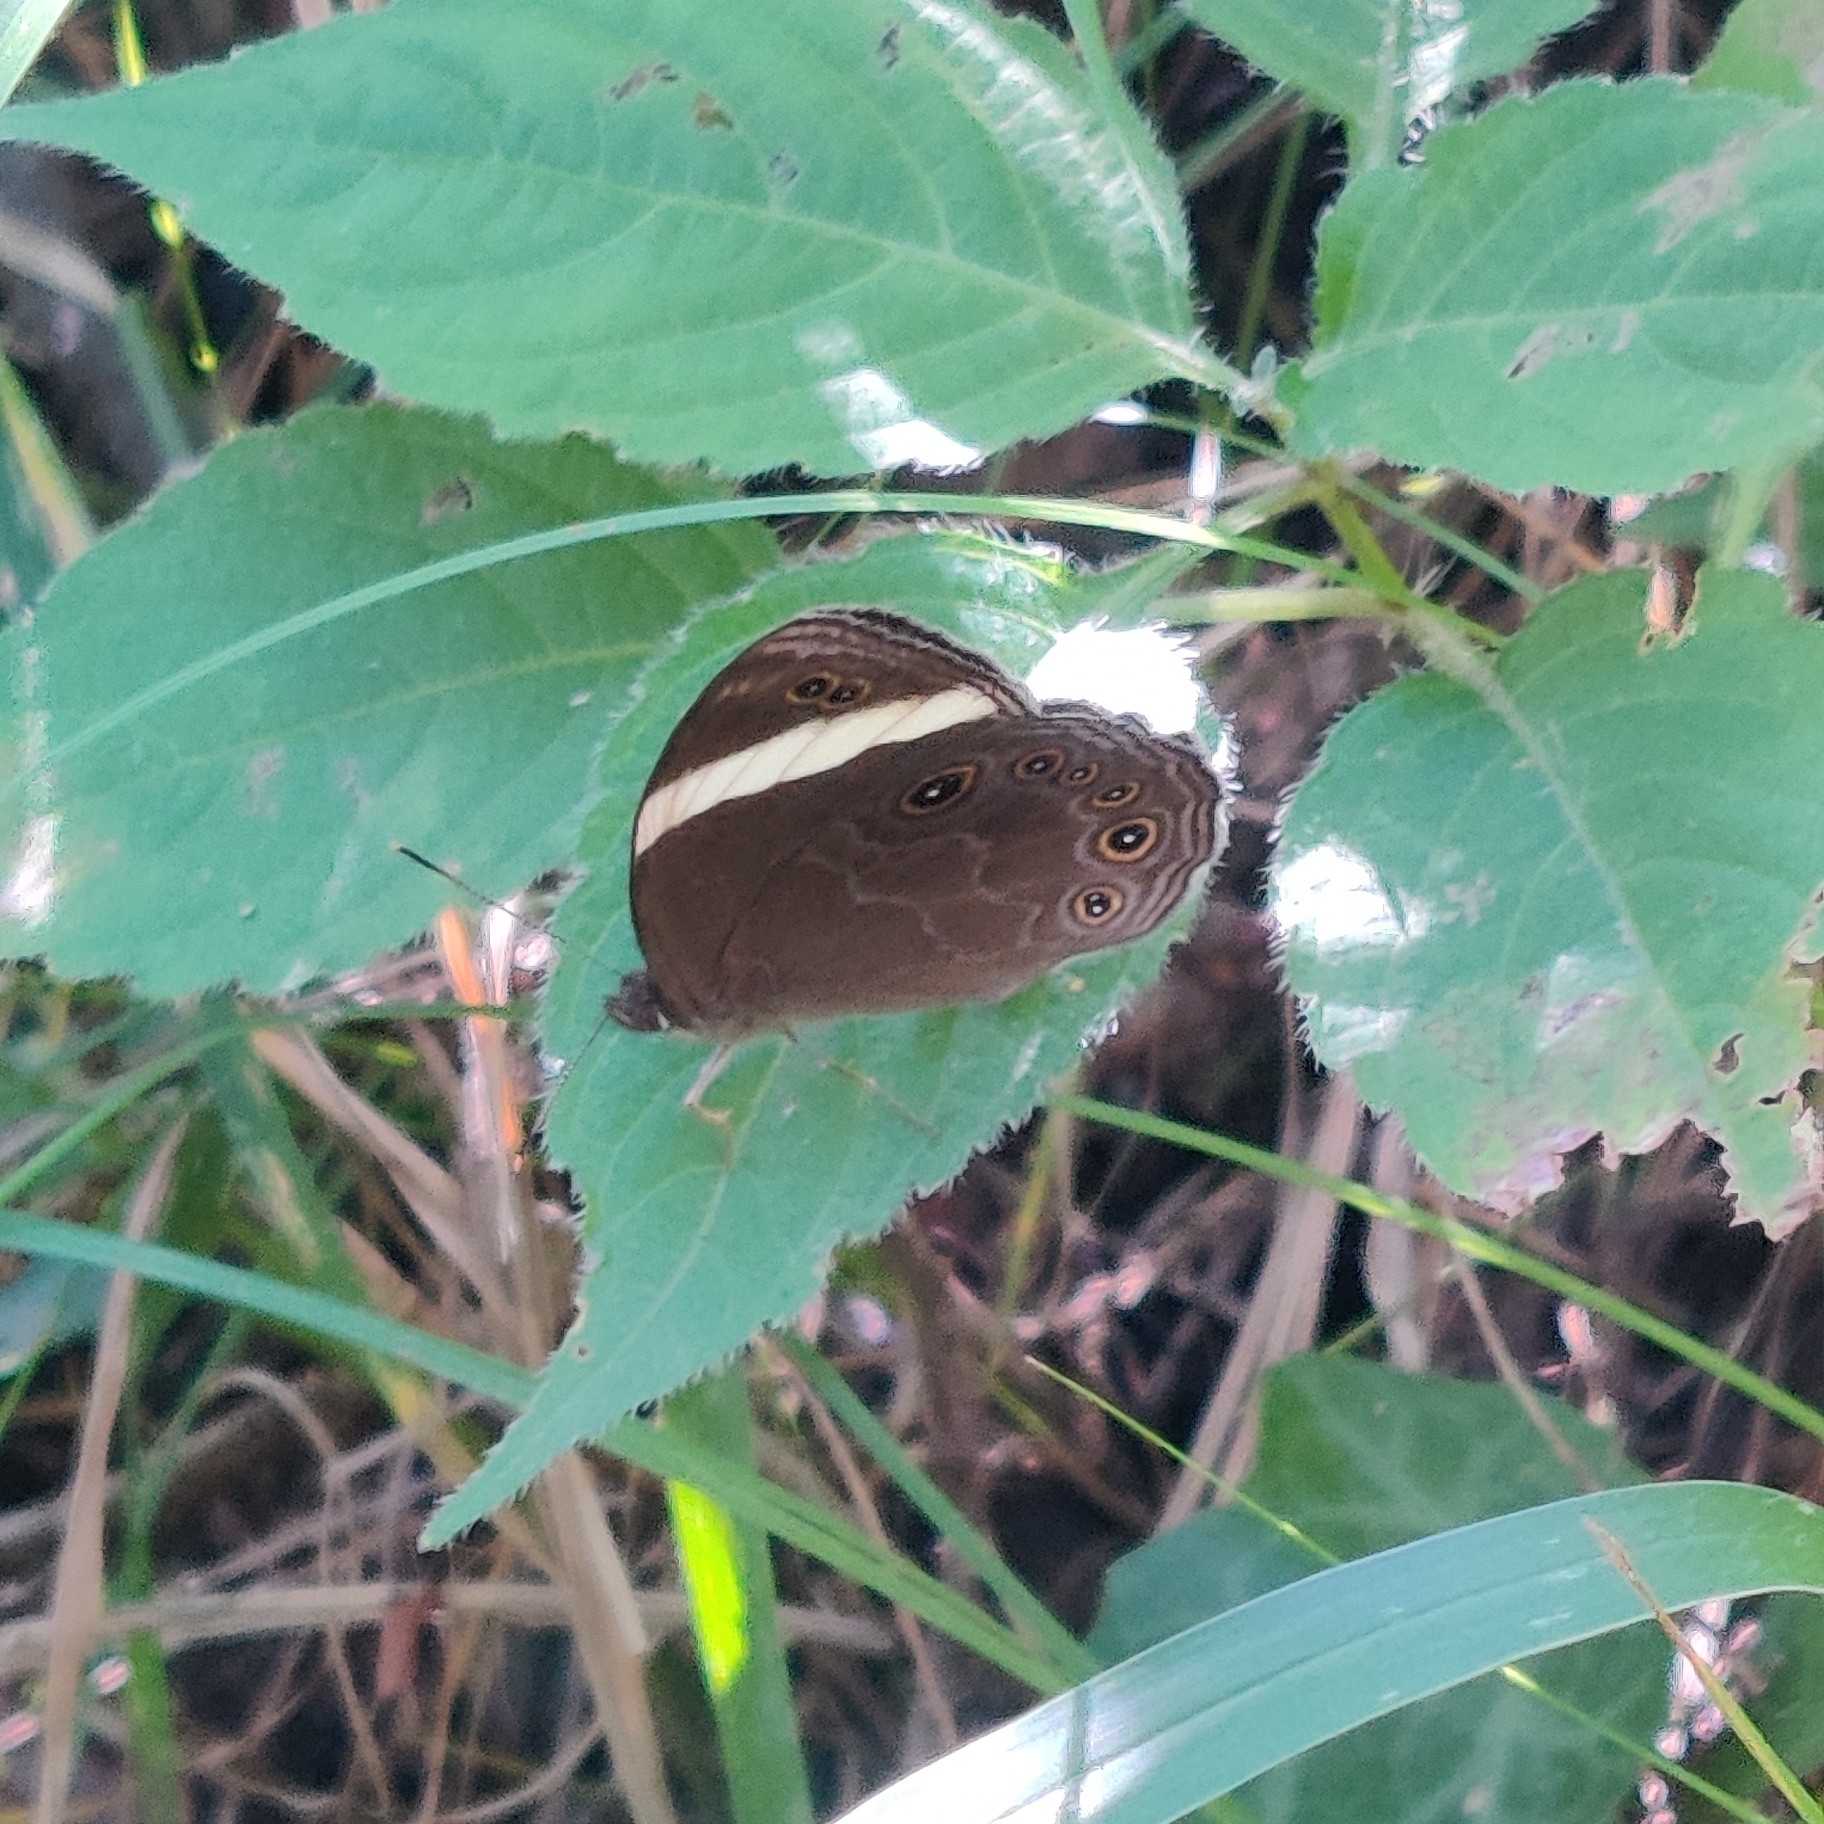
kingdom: Animalia
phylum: Arthropoda
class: Insecta
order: Lepidoptera
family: Nymphalidae
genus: Lethe
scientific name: Lethe verma
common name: Straight-banded treebrown
